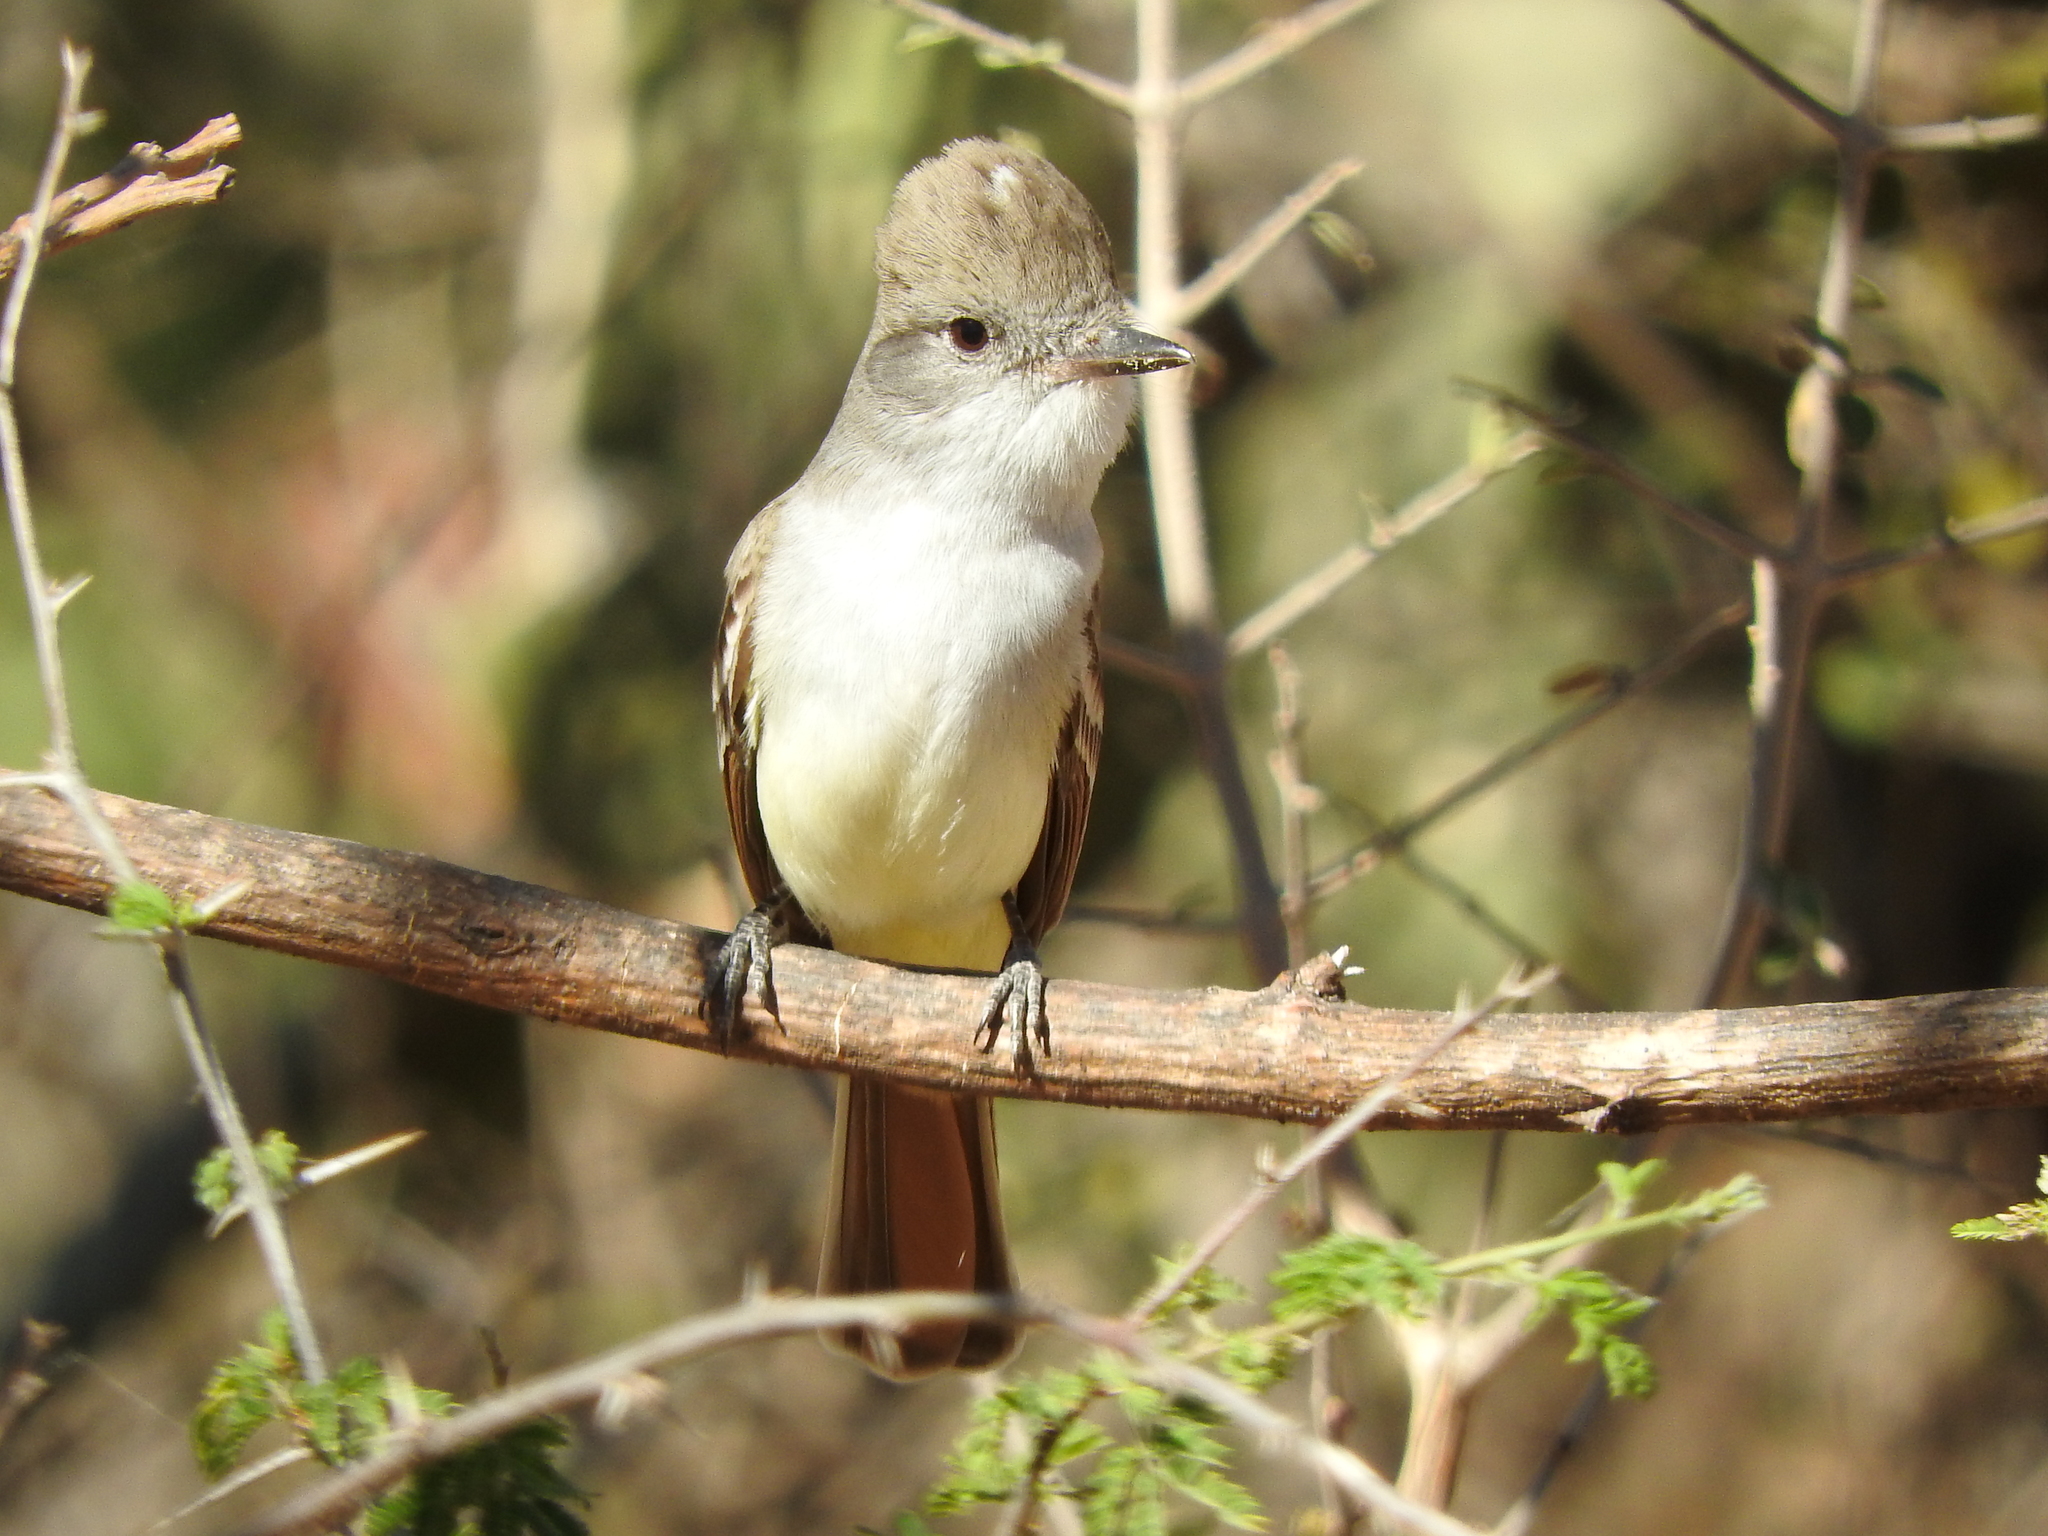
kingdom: Animalia
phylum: Chordata
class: Aves
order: Passeriformes
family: Tyrannidae
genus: Myiarchus
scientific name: Myiarchus cinerascens
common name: Ash-throated flycatcher
